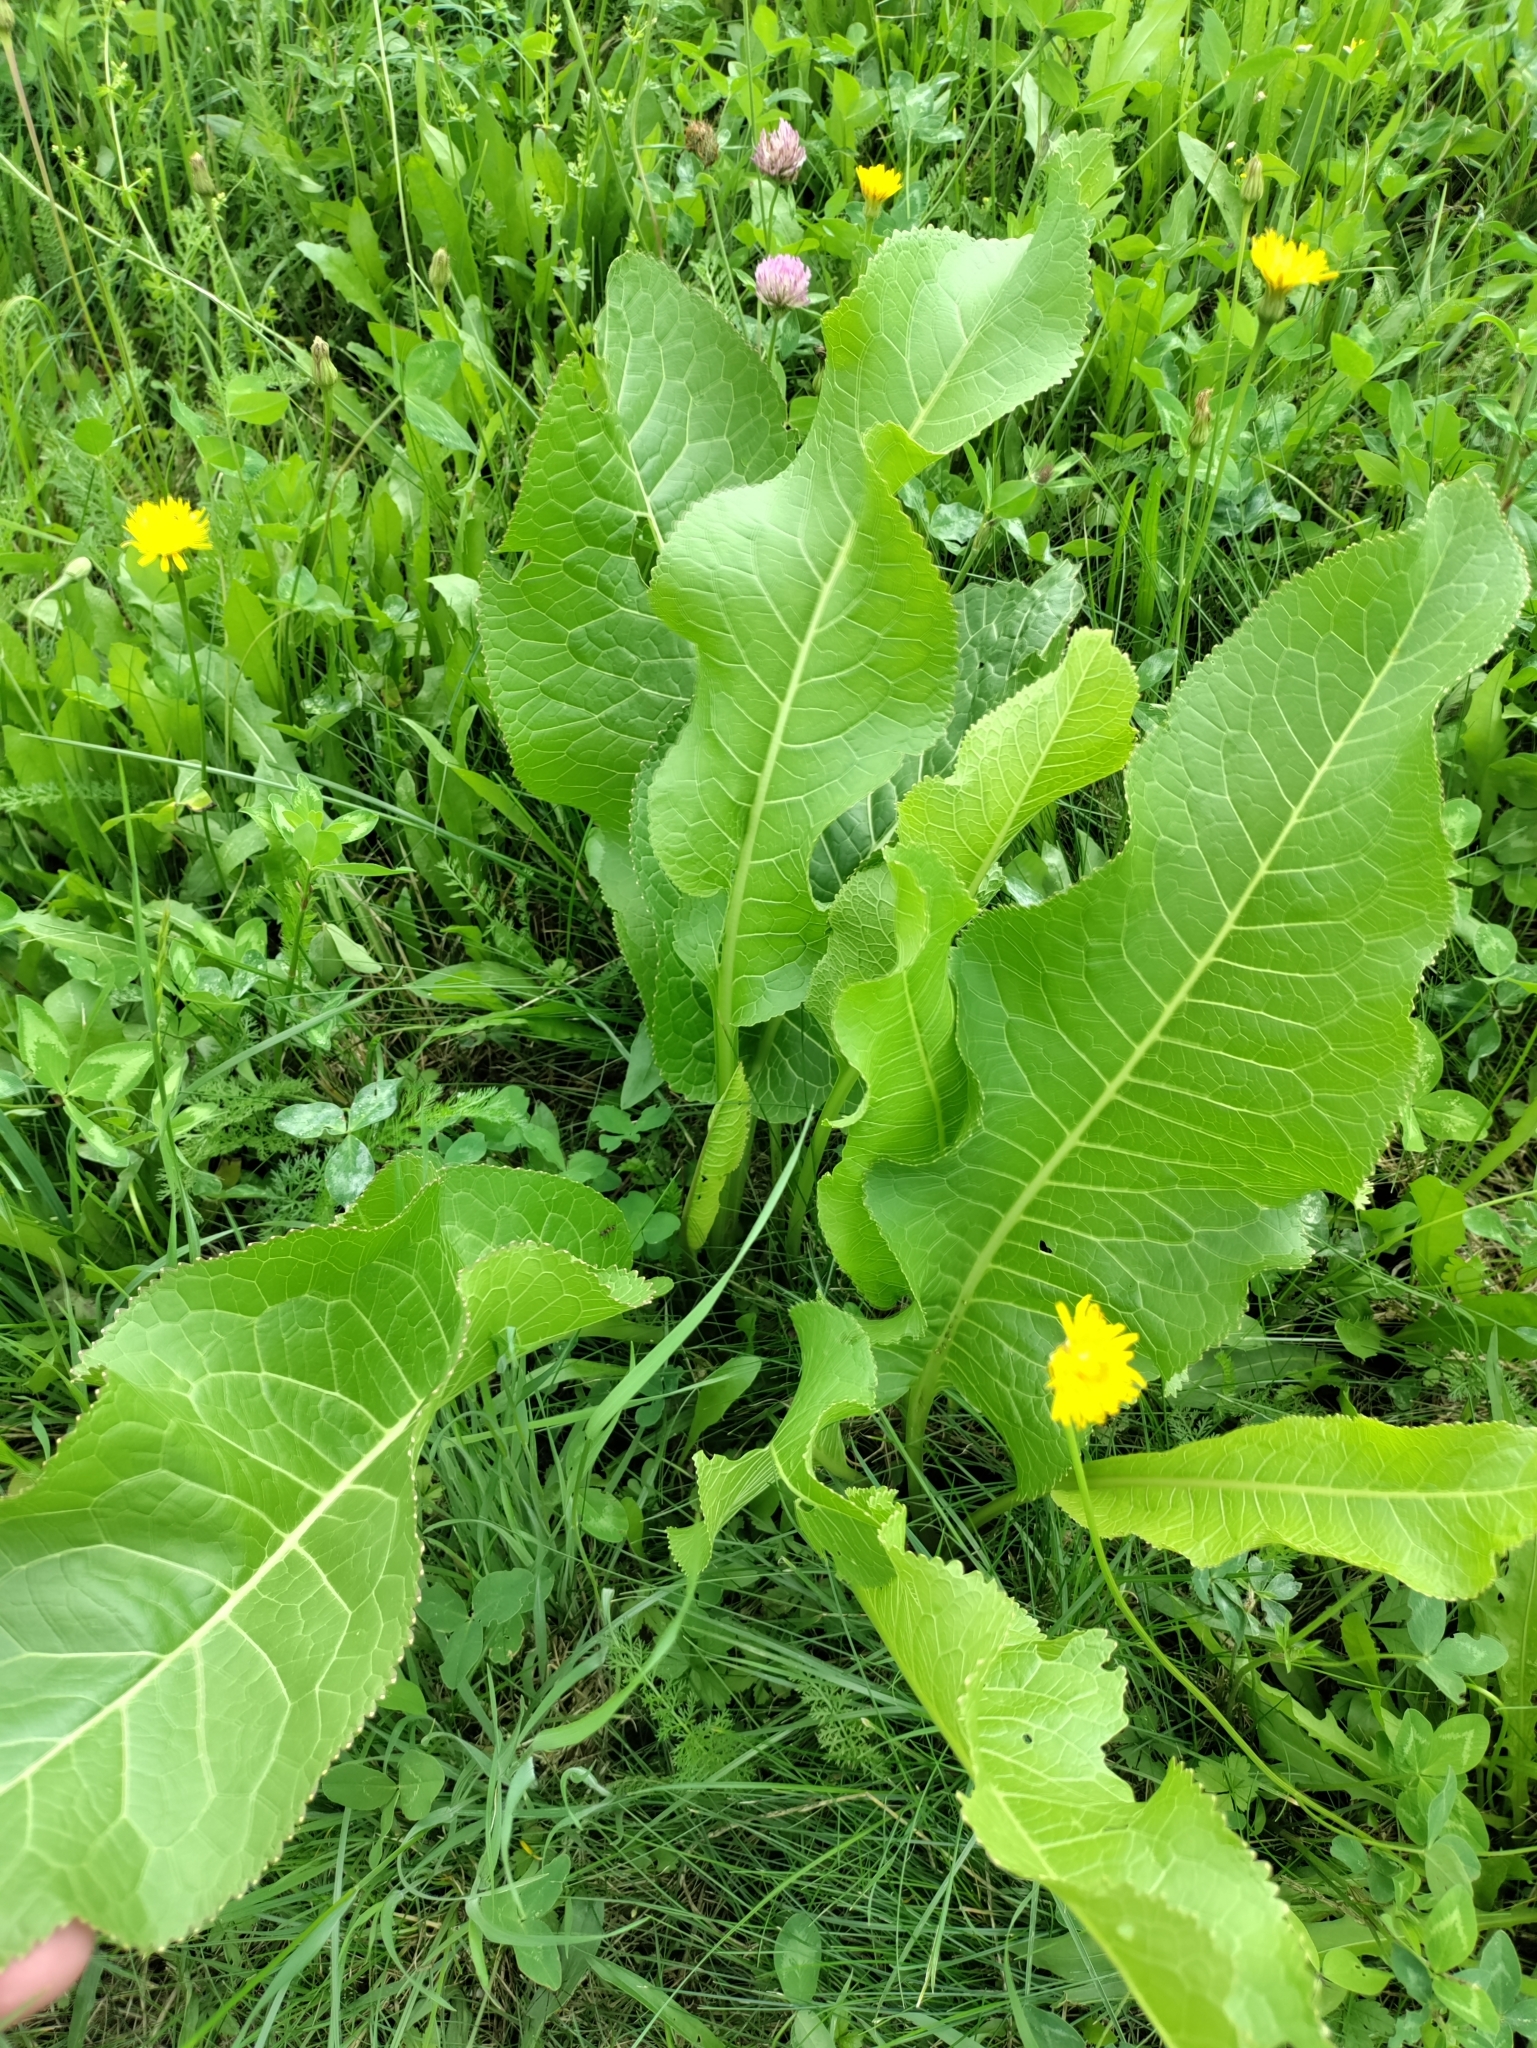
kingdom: Plantae
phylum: Tracheophyta
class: Magnoliopsida
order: Brassicales
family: Brassicaceae
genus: Armoracia
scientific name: Armoracia rusticana
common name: Horseradish
